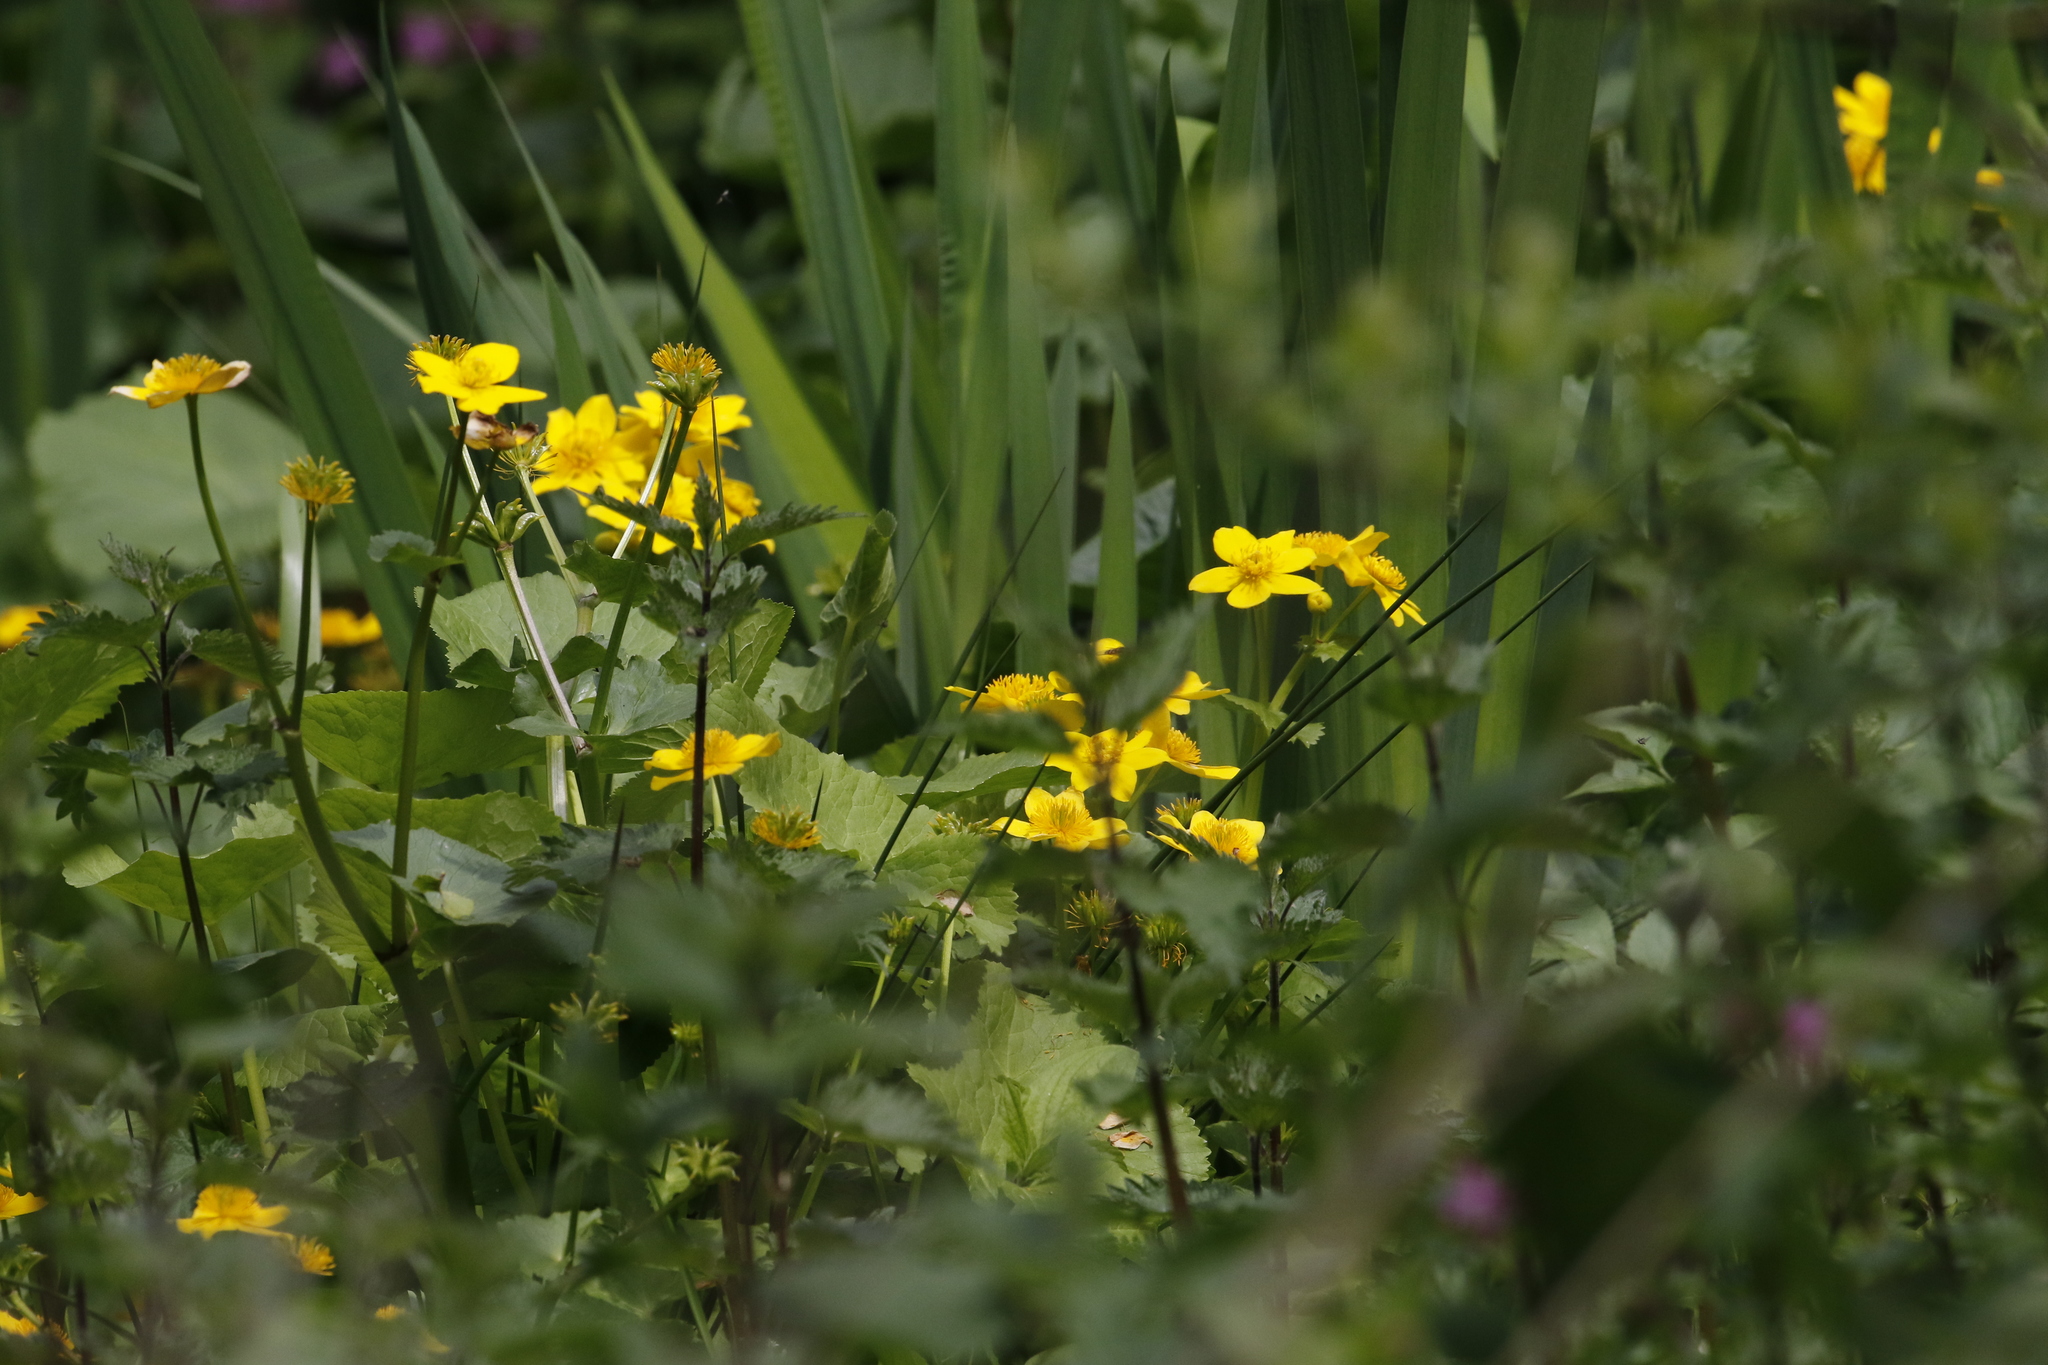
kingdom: Plantae
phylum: Tracheophyta
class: Magnoliopsida
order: Ranunculales
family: Ranunculaceae
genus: Caltha
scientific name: Caltha palustris
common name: Marsh marigold
